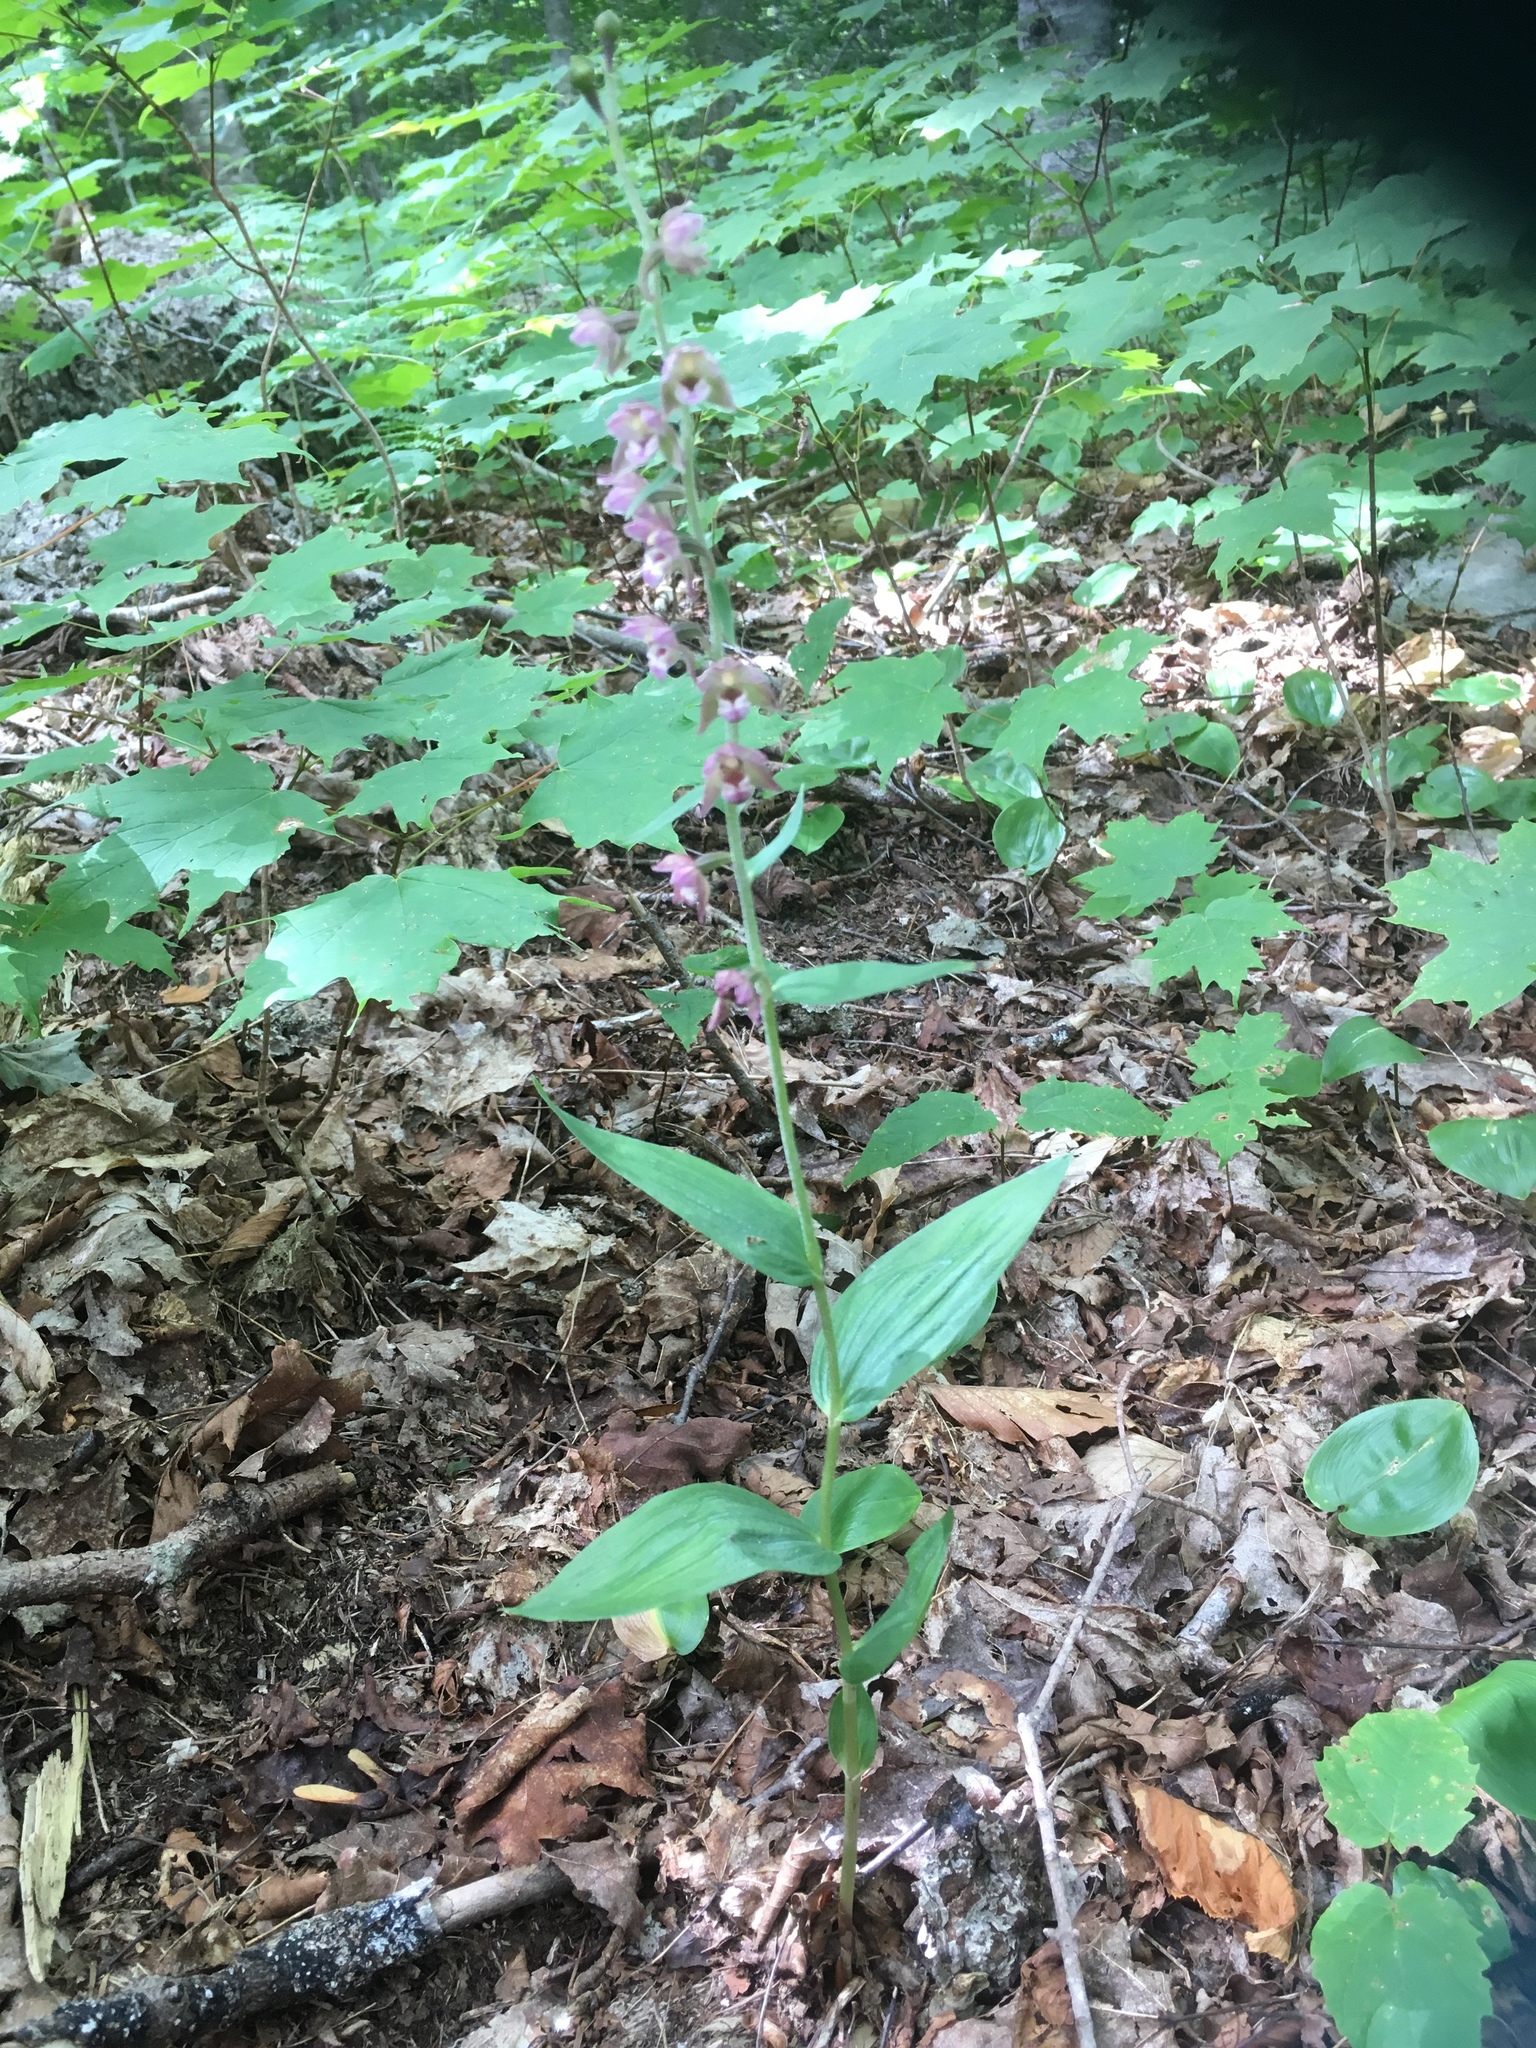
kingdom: Plantae
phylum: Tracheophyta
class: Liliopsida
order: Asparagales
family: Orchidaceae
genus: Epipactis
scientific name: Epipactis helleborine
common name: Broad-leaved helleborine
